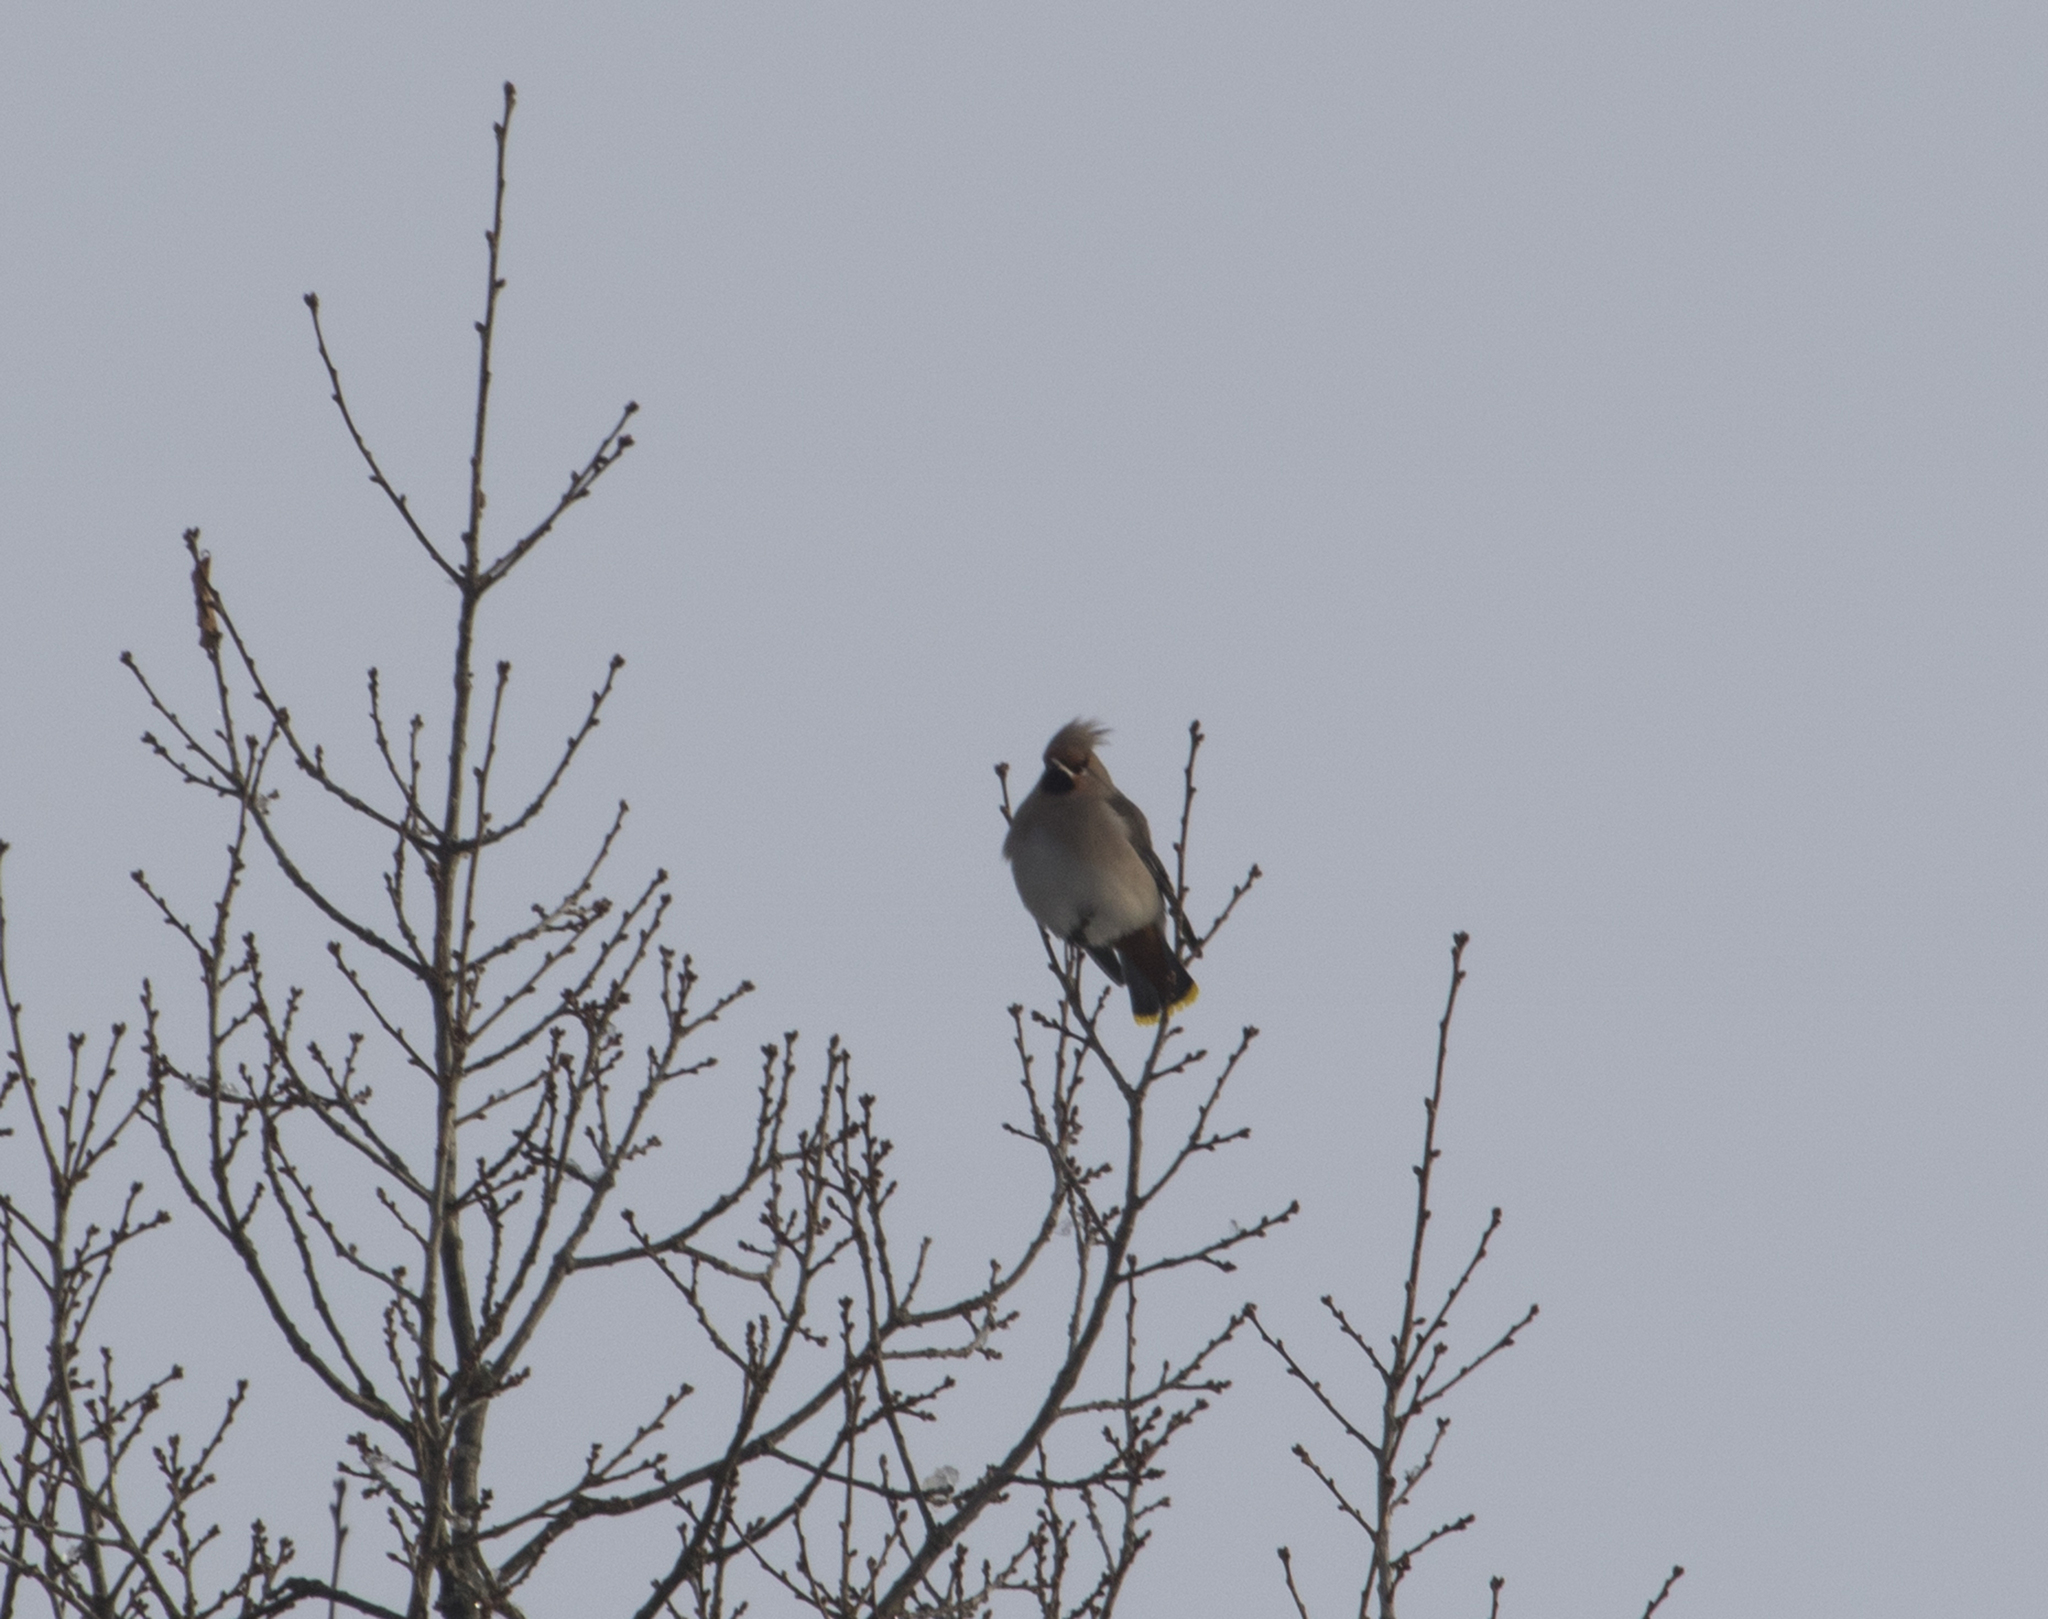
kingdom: Animalia
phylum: Chordata
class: Aves
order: Passeriformes
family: Bombycillidae
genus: Bombycilla
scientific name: Bombycilla garrulus
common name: Bohemian waxwing
